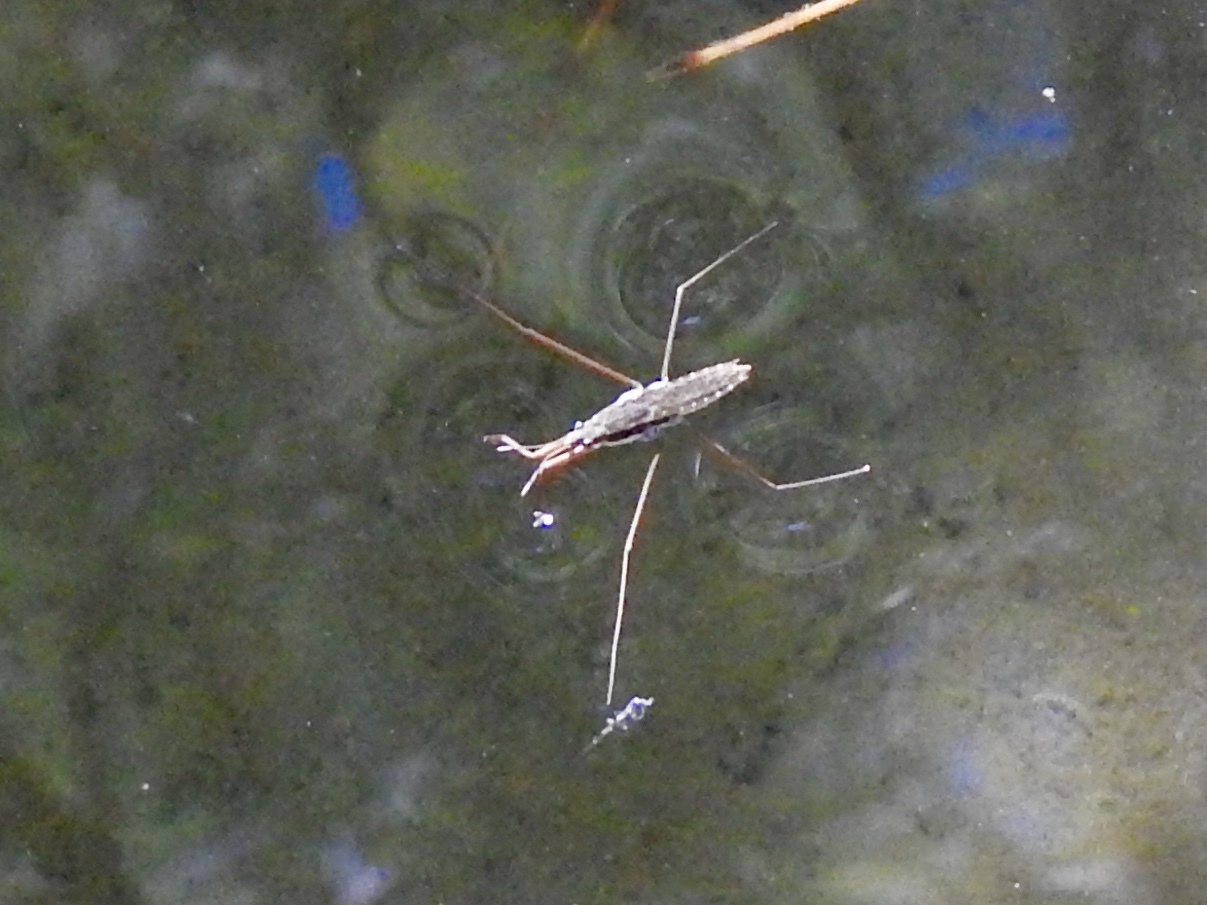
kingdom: Animalia
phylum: Arthropoda
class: Insecta
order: Hemiptera
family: Gerridae
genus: Aquarius
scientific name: Aquarius remigis
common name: Common water strider
